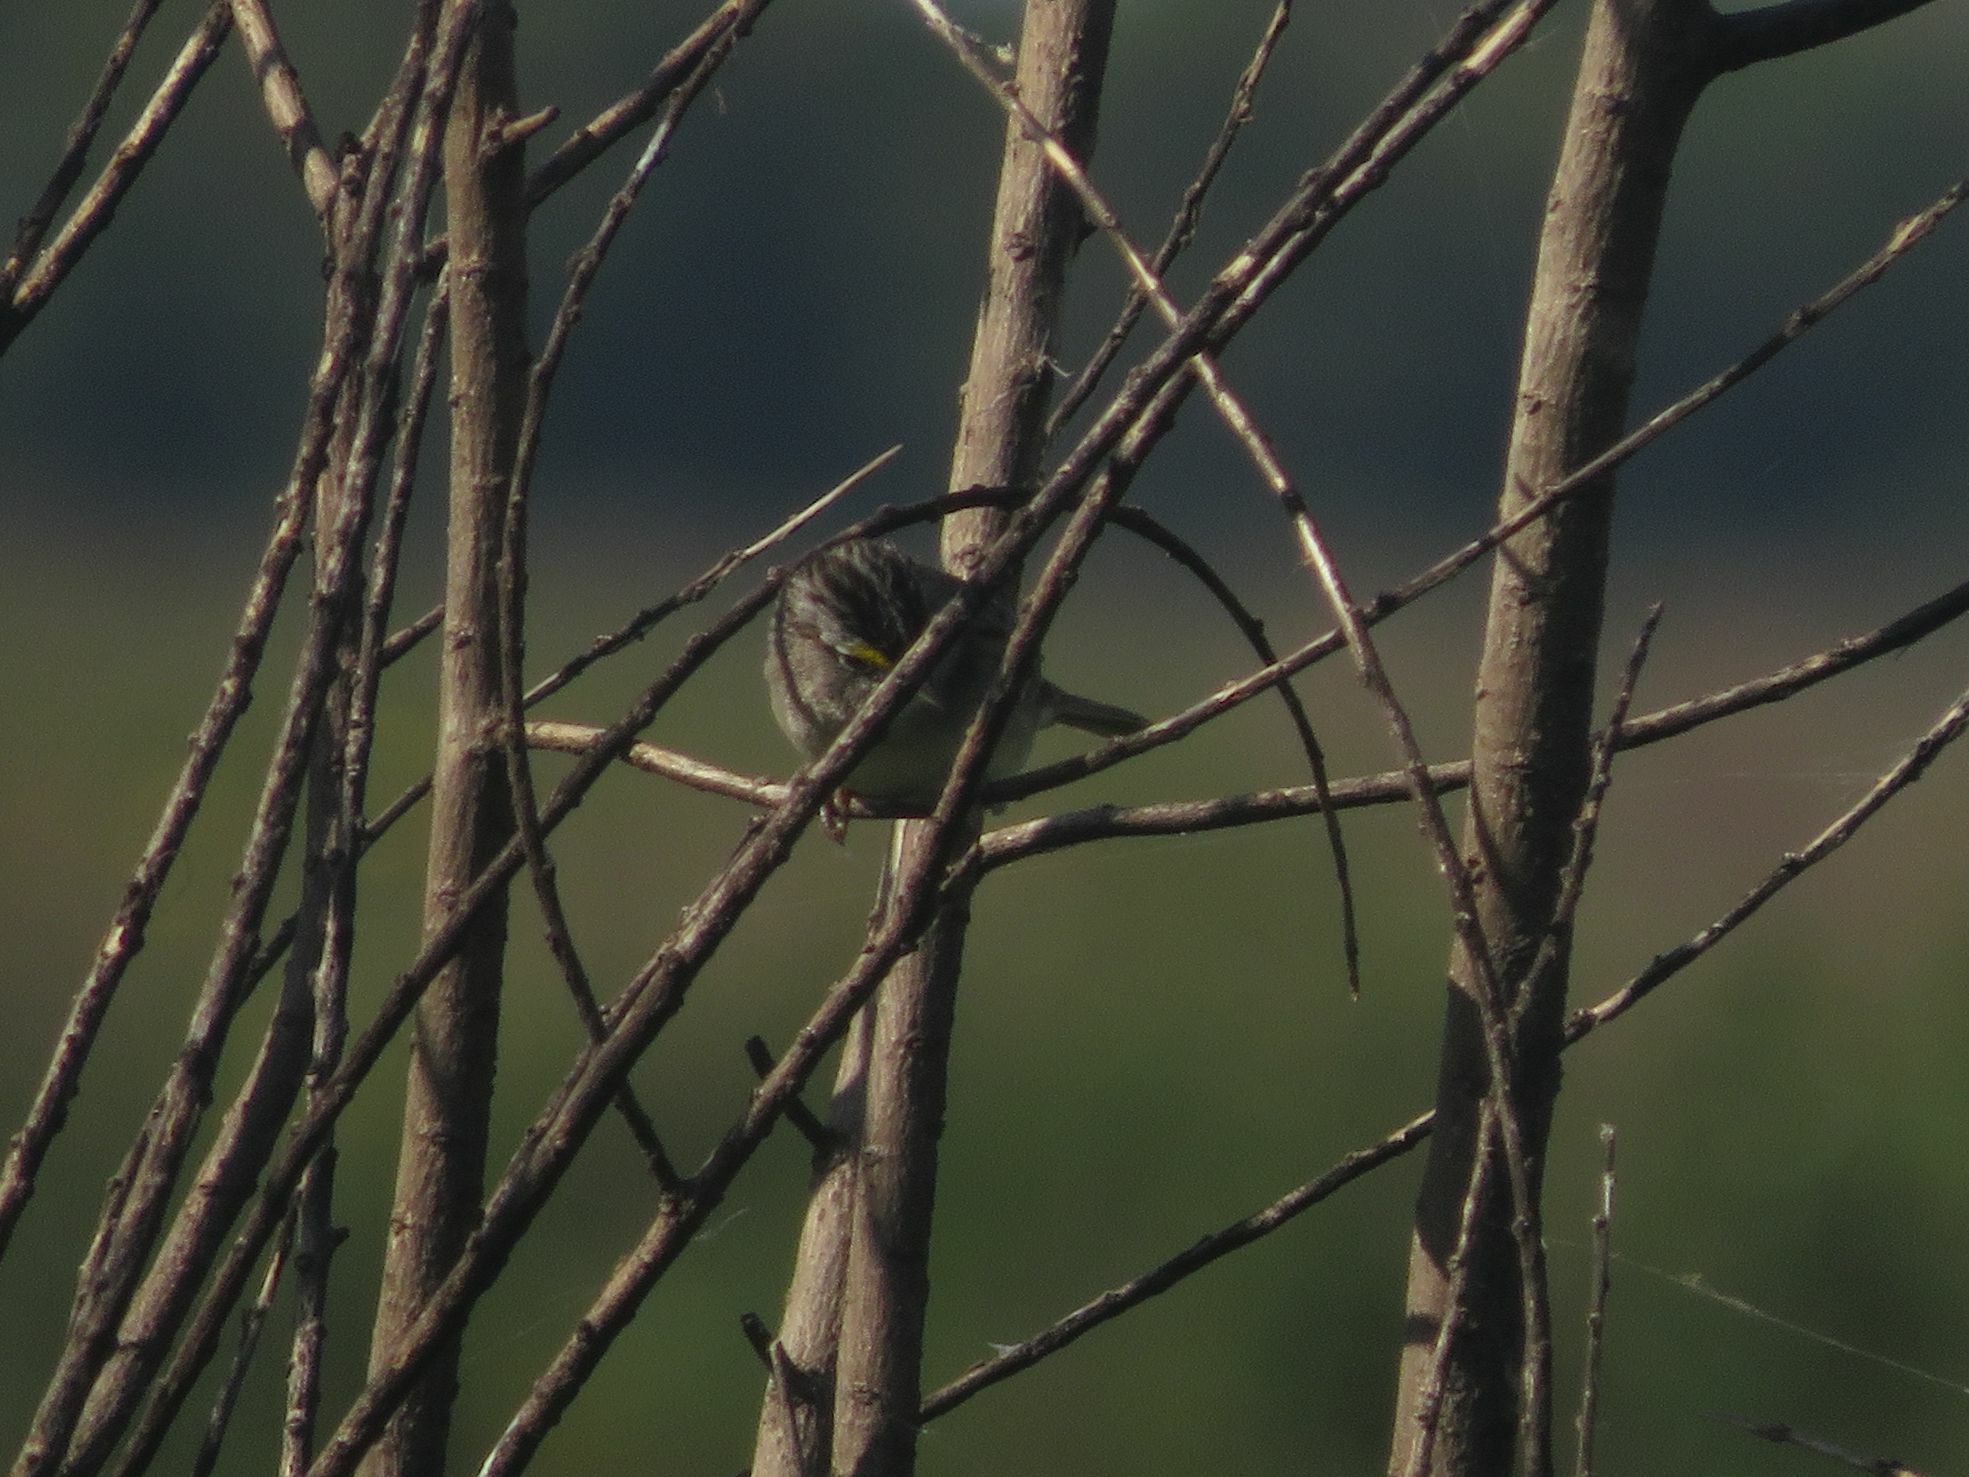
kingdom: Animalia
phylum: Chordata
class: Aves
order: Passeriformes
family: Passerellidae
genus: Ammodramus
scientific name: Ammodramus humeralis
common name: Grassland sparrow
